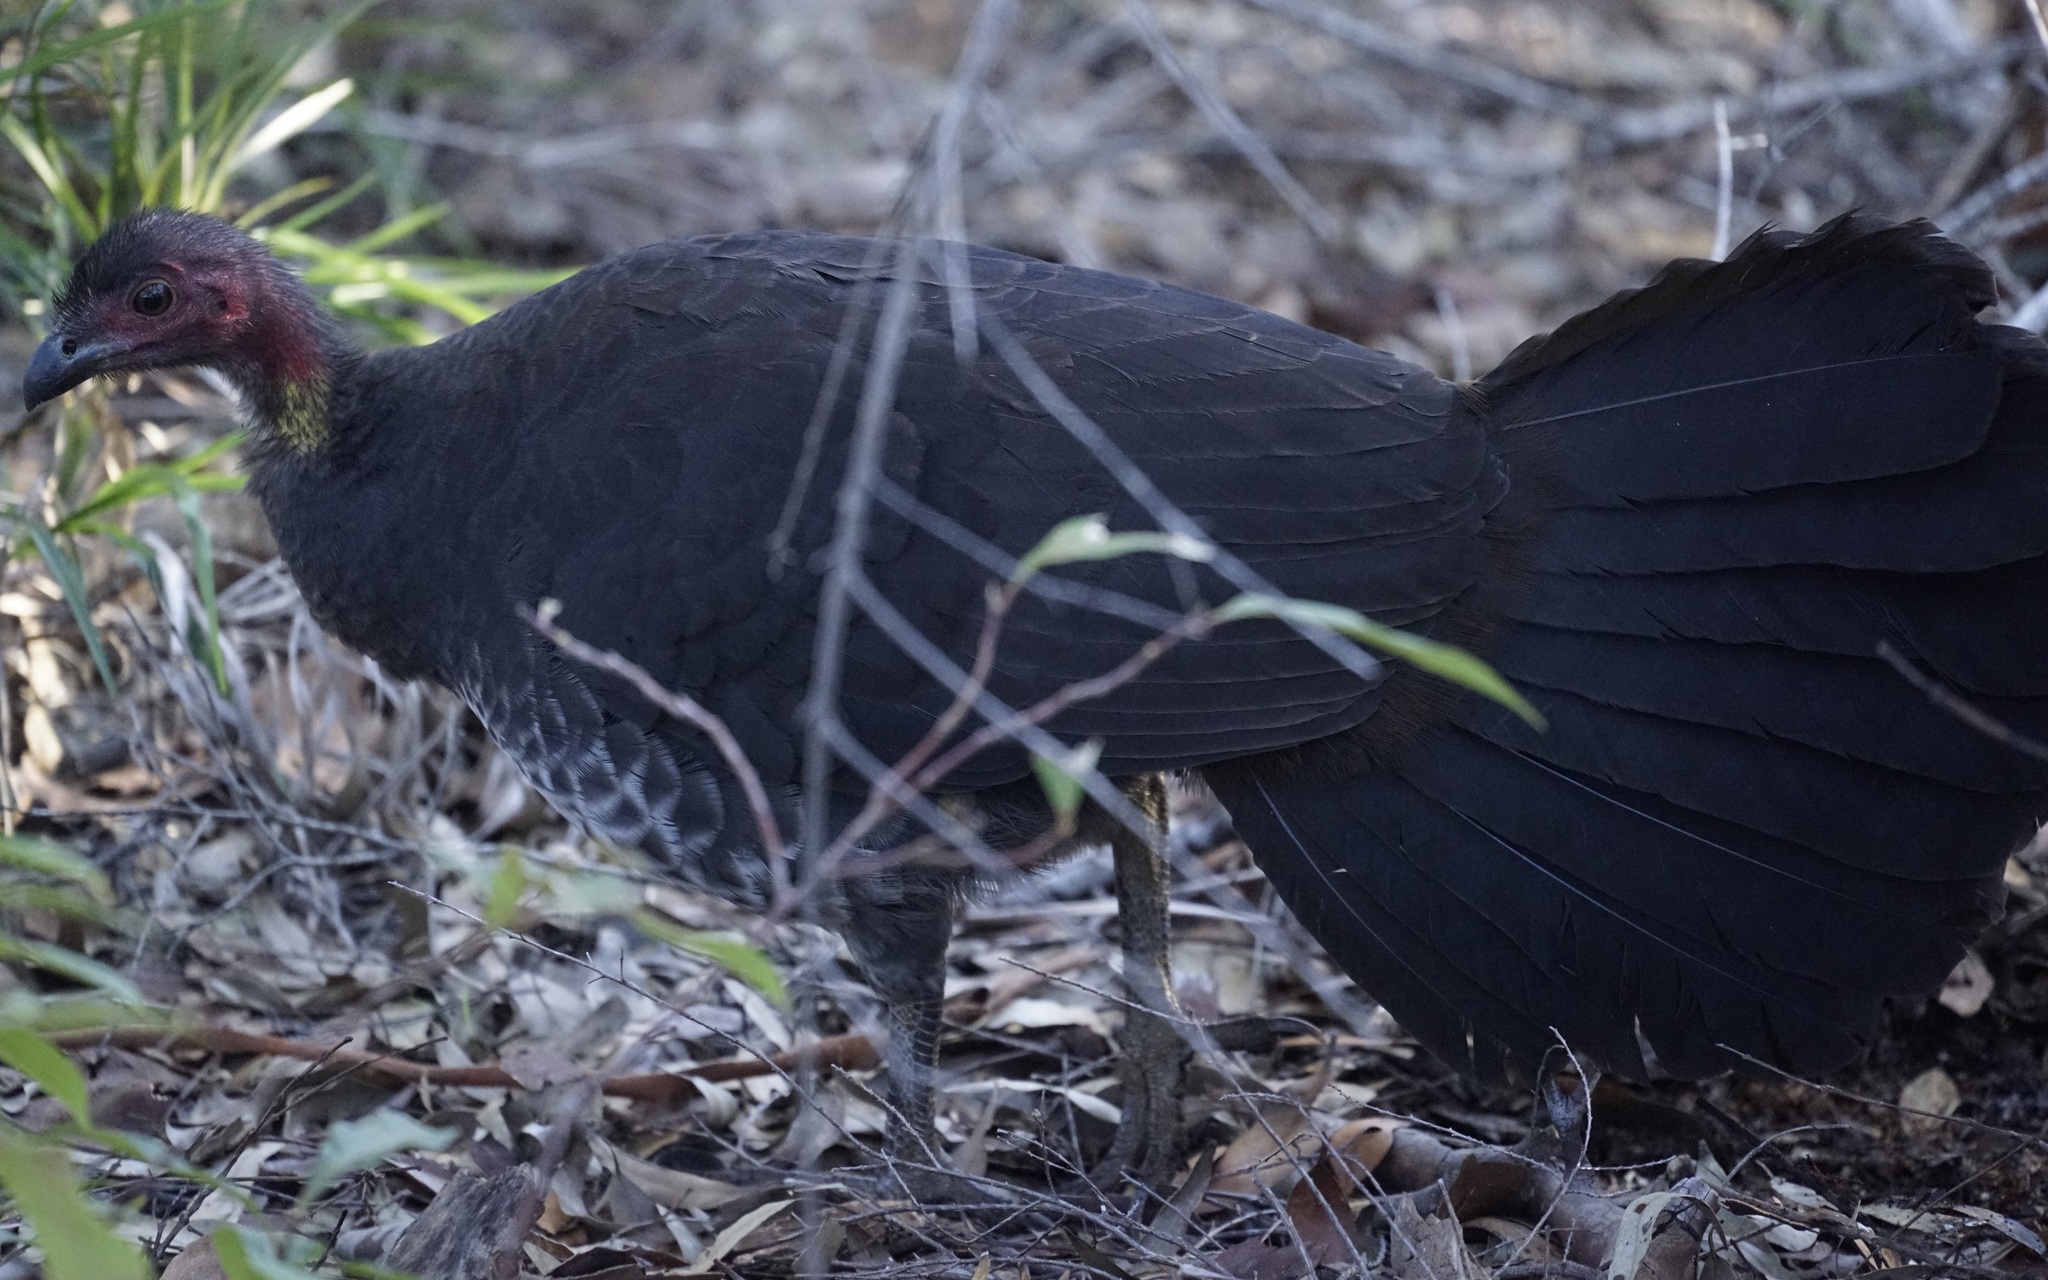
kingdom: Animalia
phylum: Chordata
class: Aves
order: Galliformes
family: Megapodiidae
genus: Alectura
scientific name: Alectura lathami
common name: Australian brushturkey
